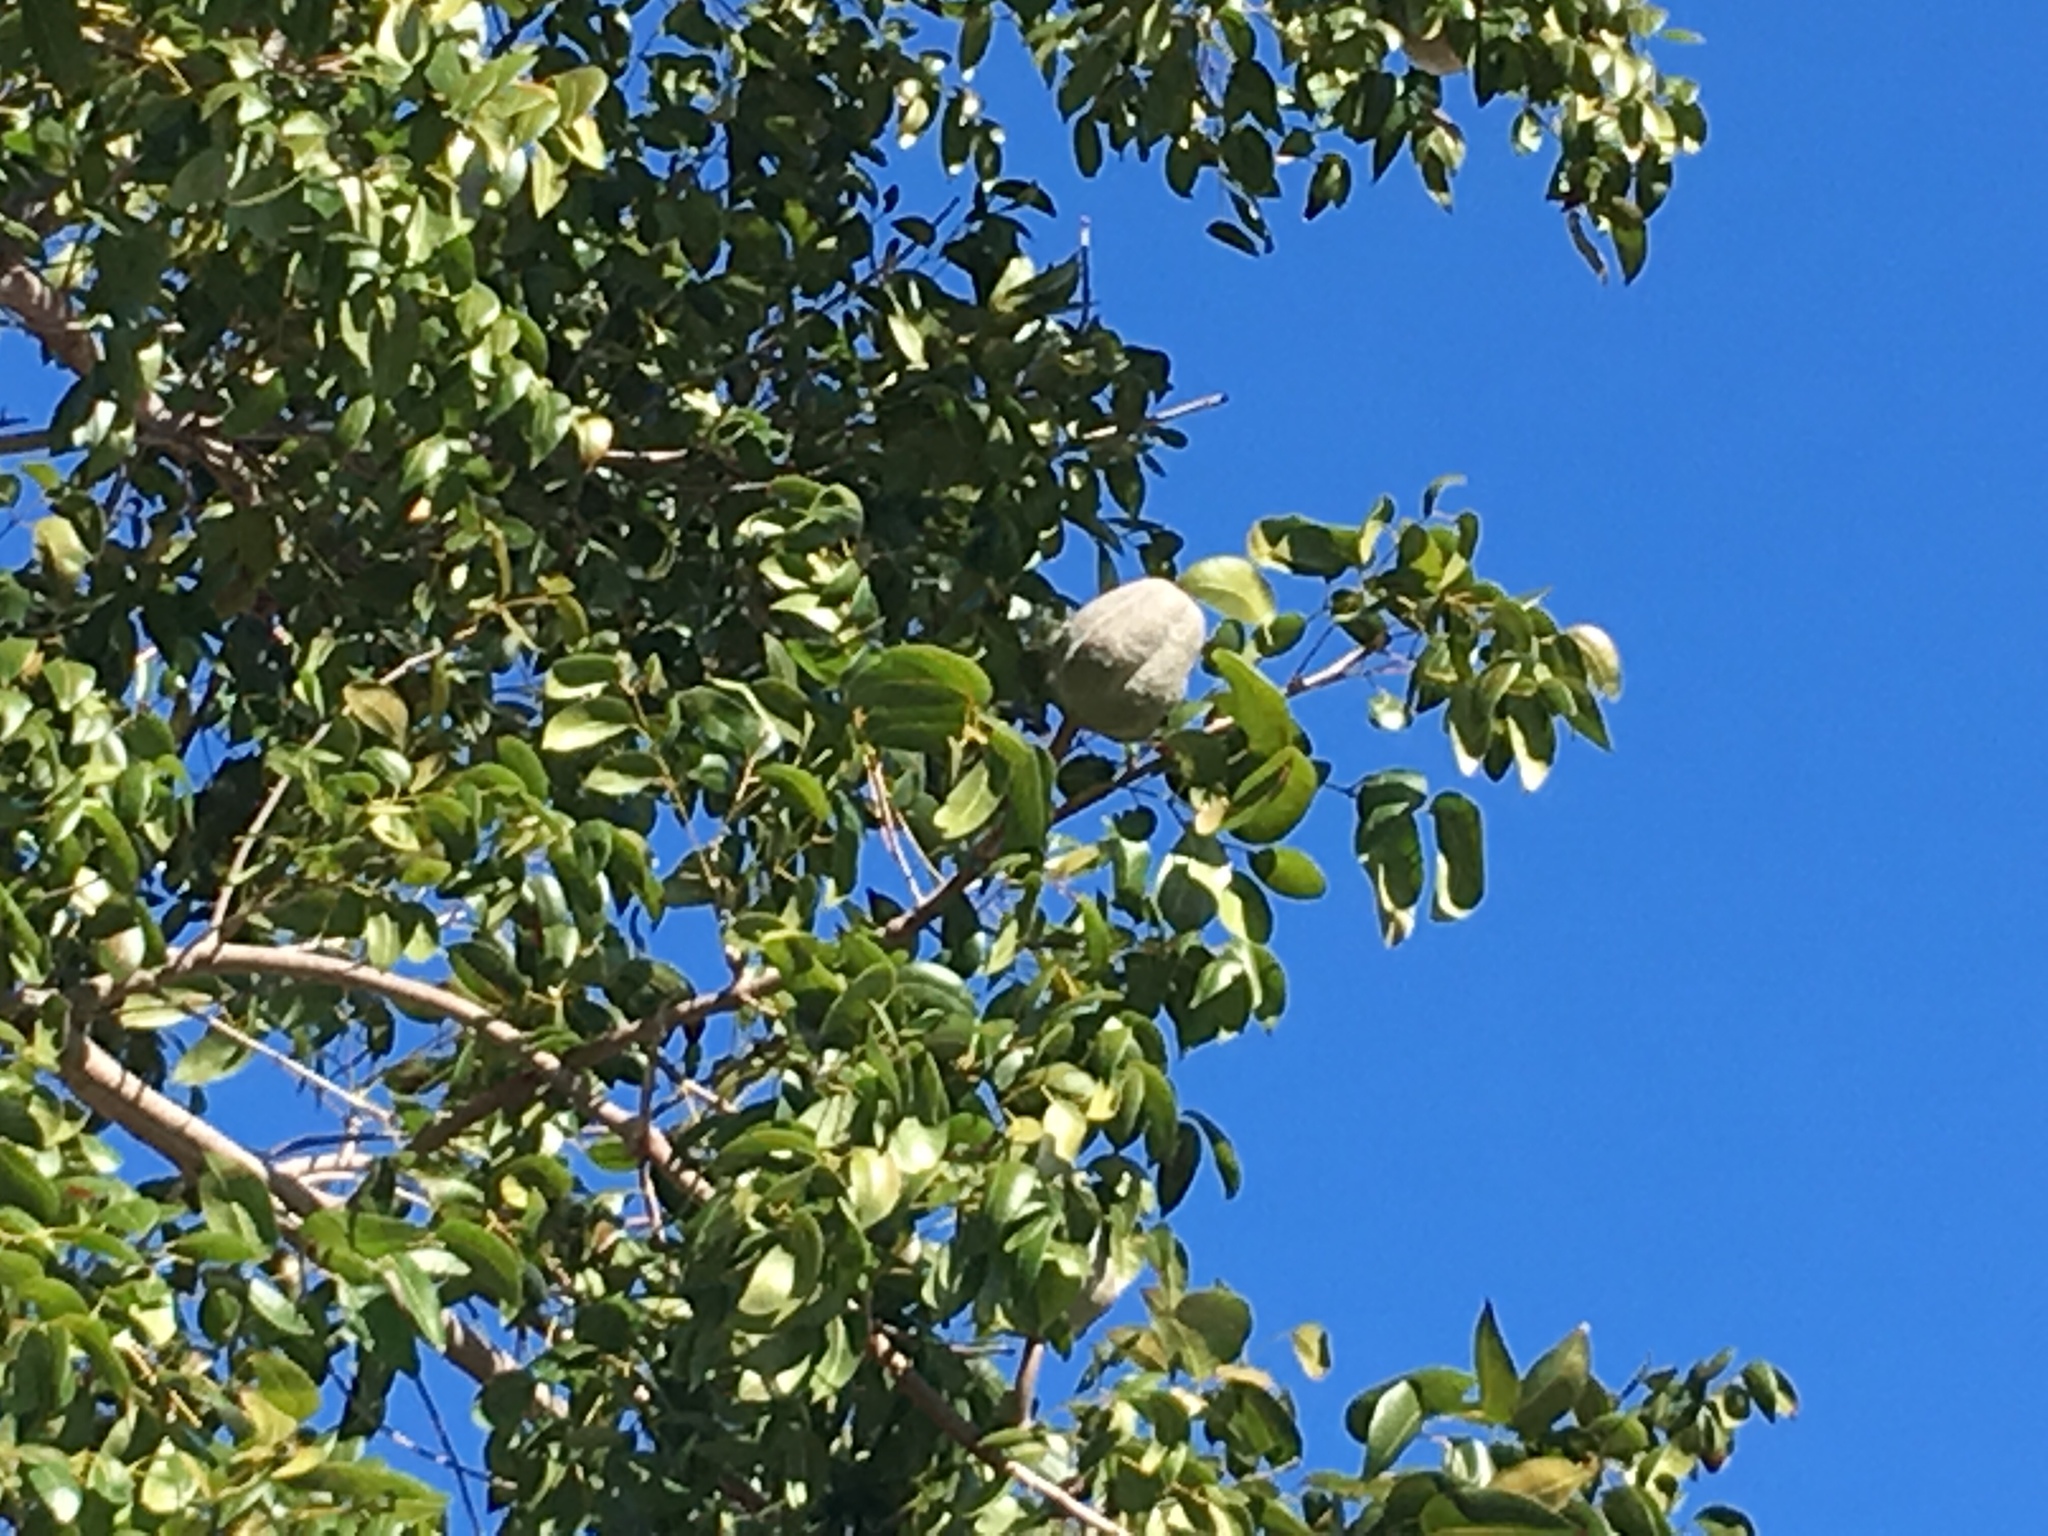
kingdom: Plantae
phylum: Tracheophyta
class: Magnoliopsida
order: Sapindales
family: Meliaceae
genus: Swietenia
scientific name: Swietenia mahagoni
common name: West indian mahogany
